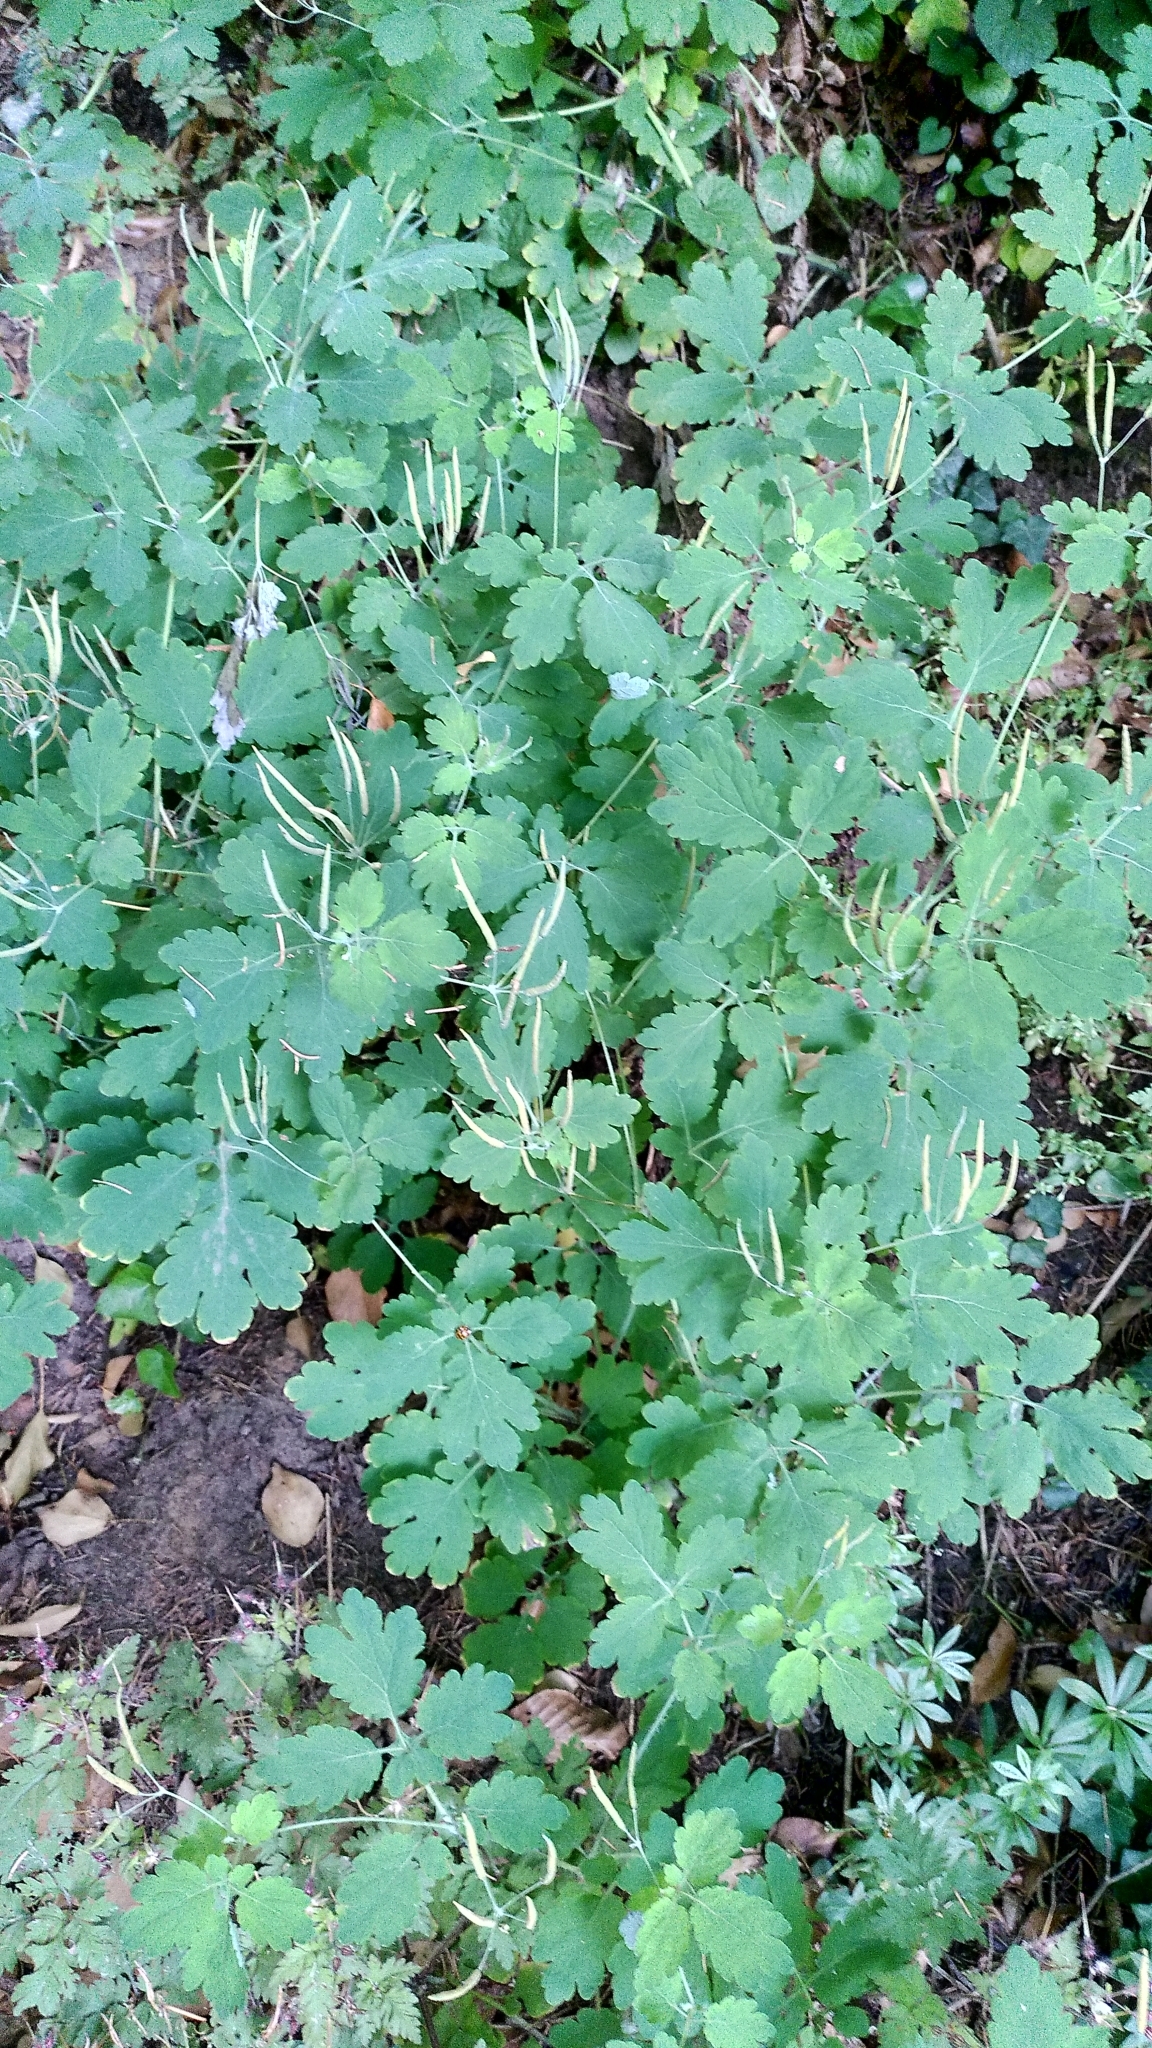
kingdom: Plantae
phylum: Tracheophyta
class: Magnoliopsida
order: Ranunculales
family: Papaveraceae
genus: Chelidonium
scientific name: Chelidonium majus
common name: Greater celandine
